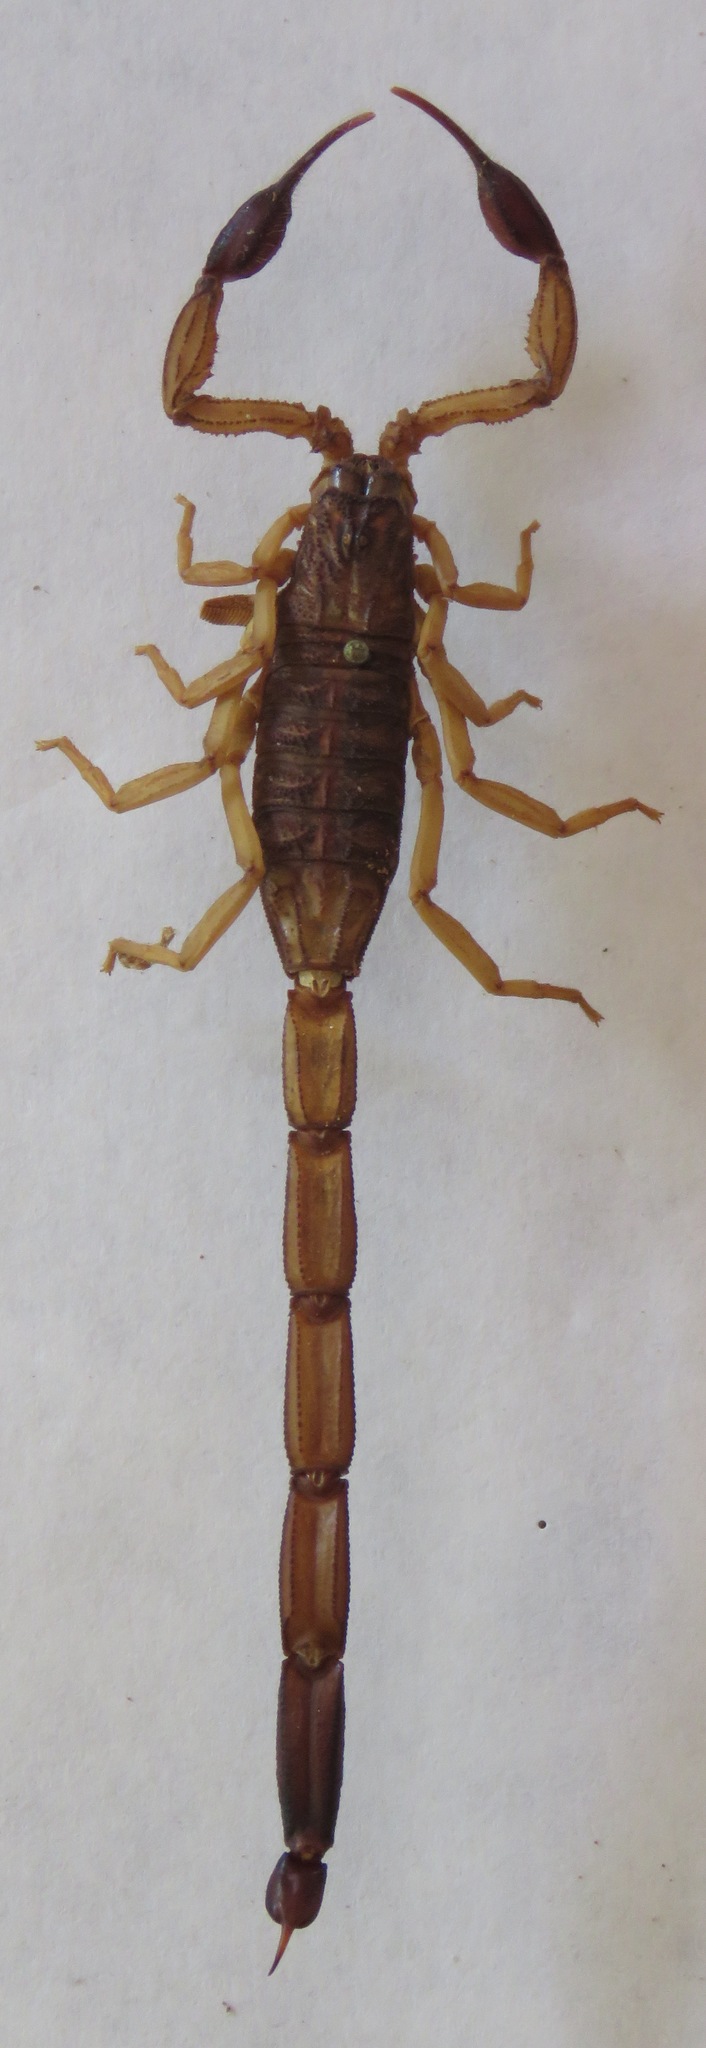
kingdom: Animalia
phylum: Arthropoda
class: Arachnida
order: Scorpiones
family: Buthidae
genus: Centruroides
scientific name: Centruroides edwardsii
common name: Scorpions
